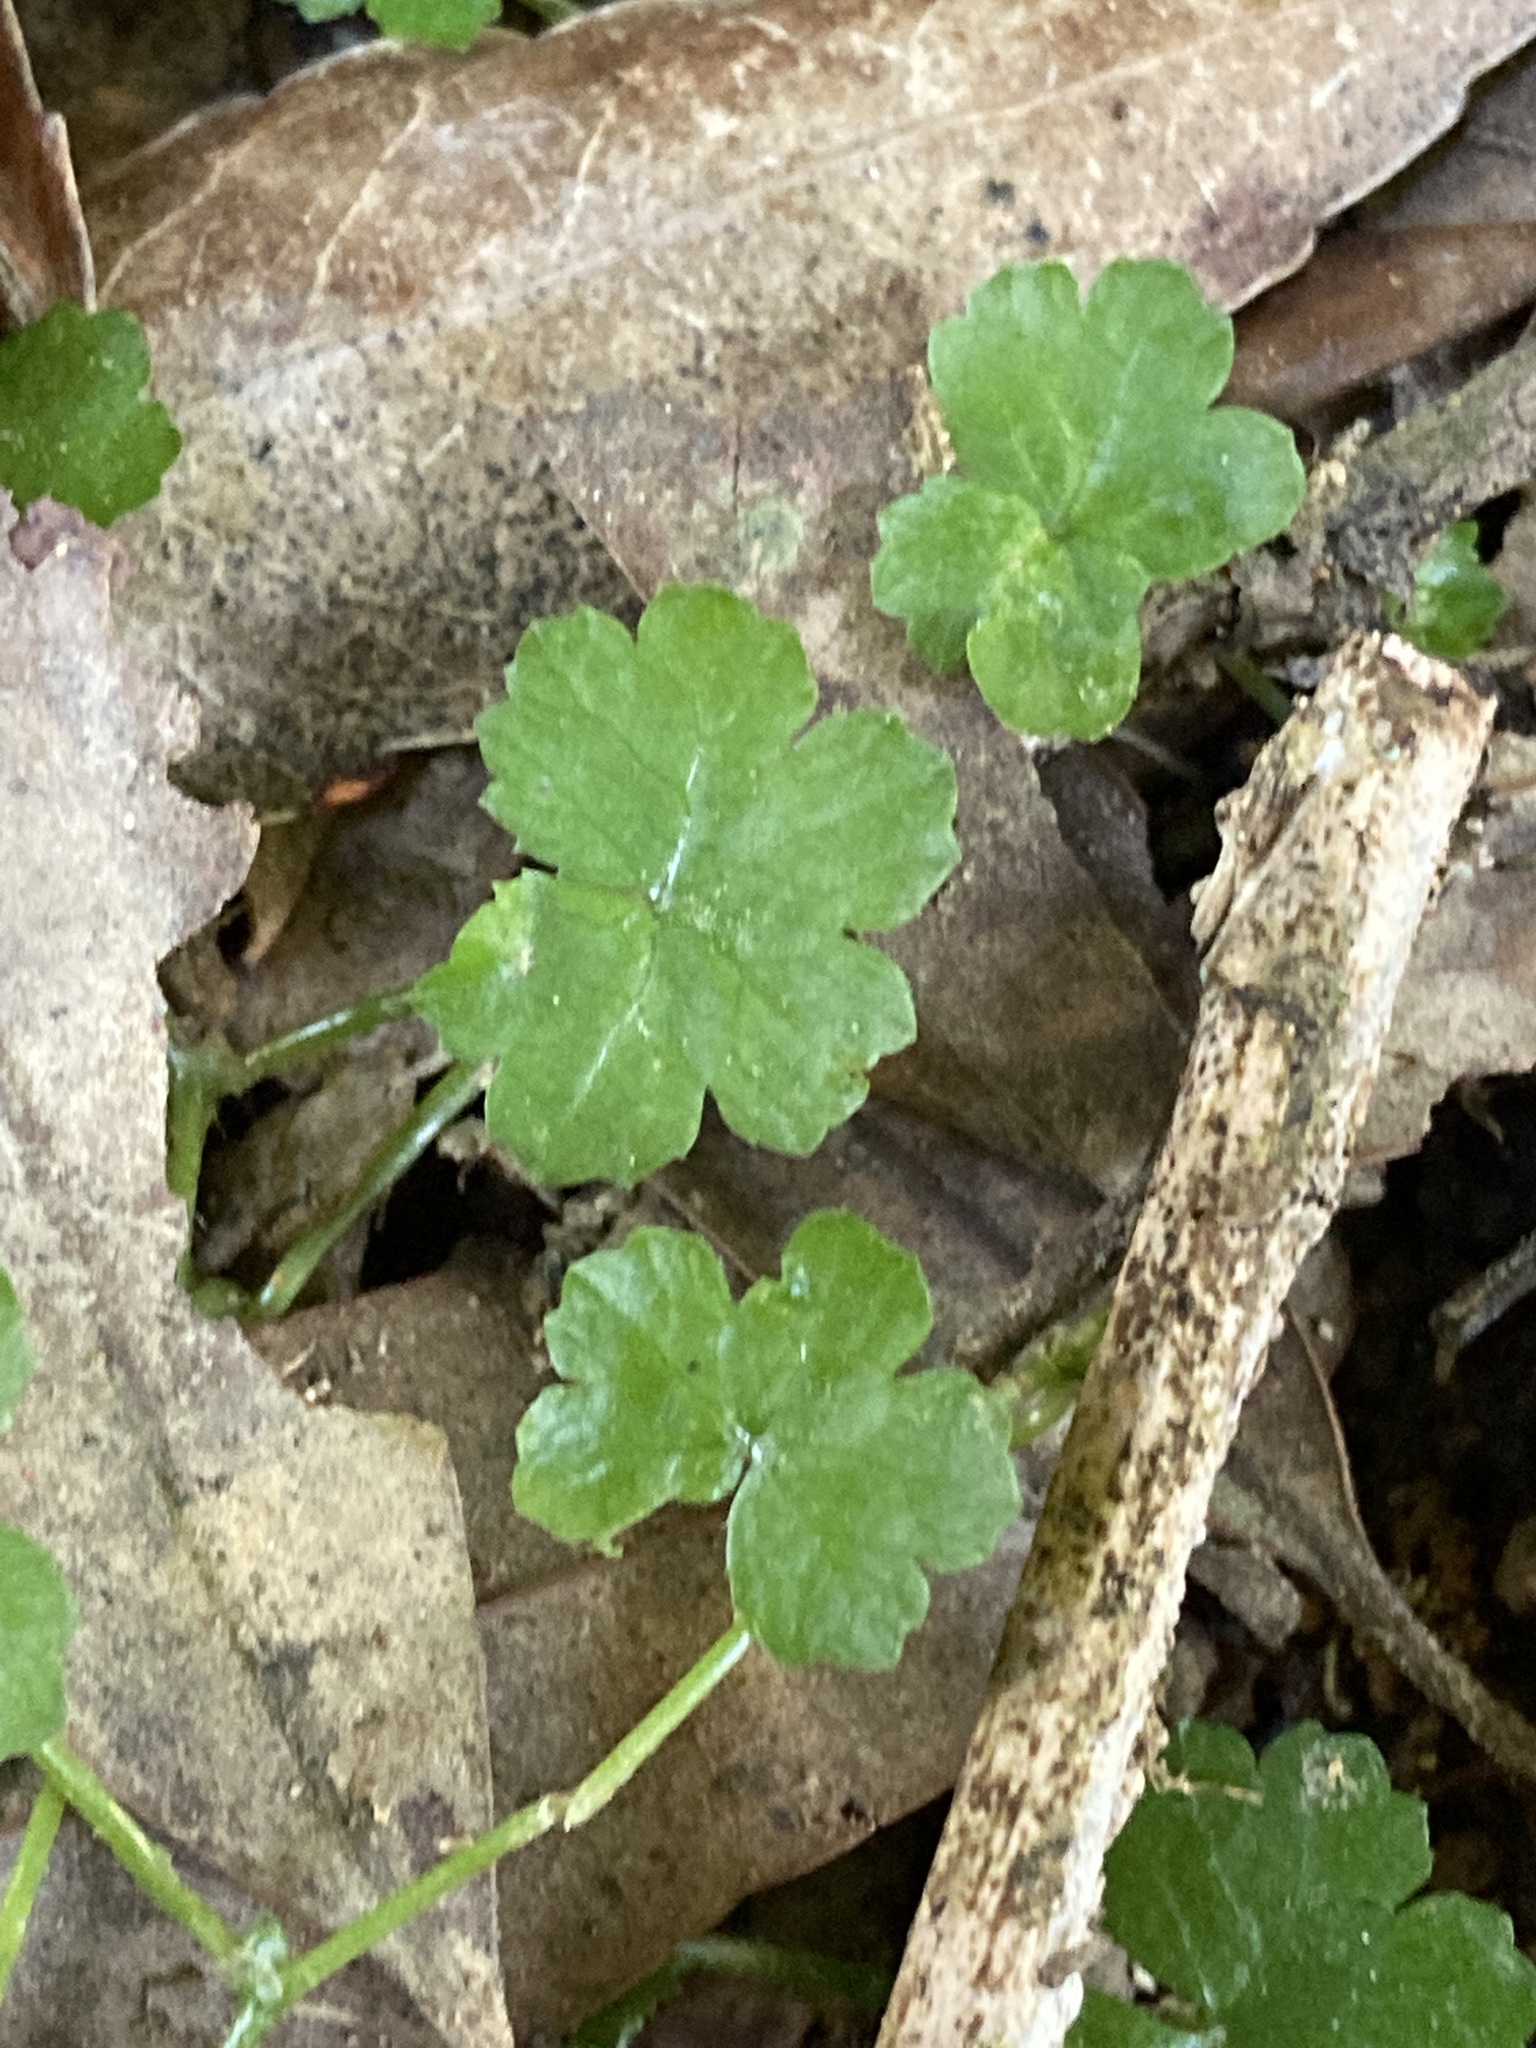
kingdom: Plantae
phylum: Tracheophyta
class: Magnoliopsida
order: Apiales
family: Araliaceae
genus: Hydrocotyle
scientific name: Hydrocotyle heteromeria
